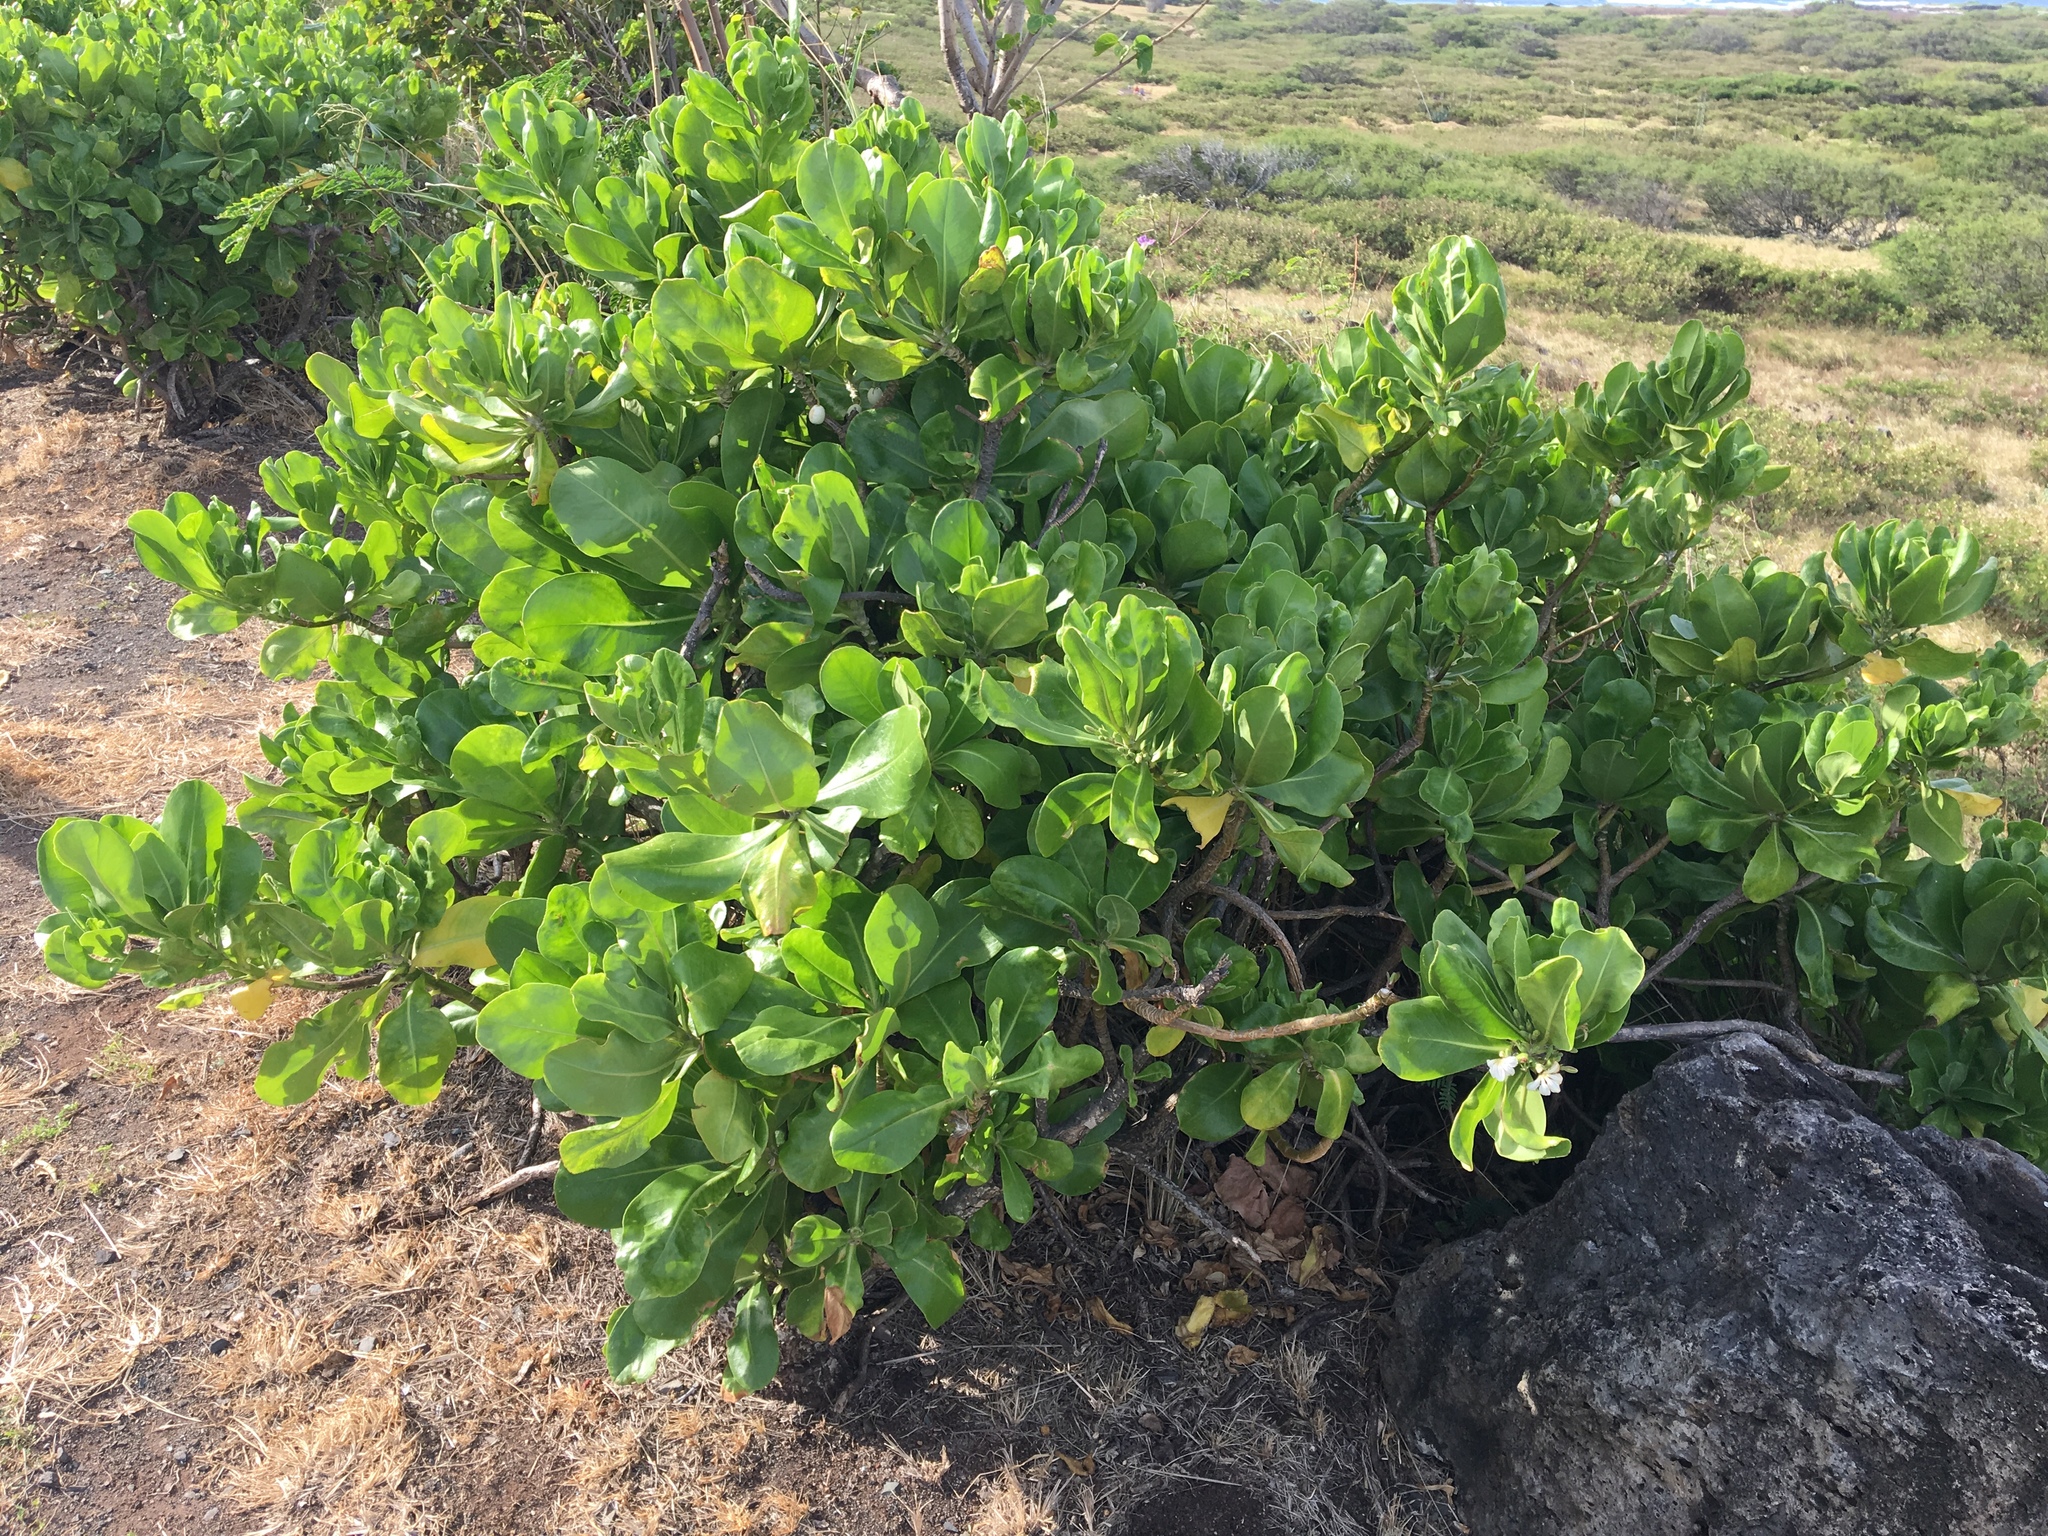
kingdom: Plantae
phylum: Tracheophyta
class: Magnoliopsida
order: Asterales
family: Goodeniaceae
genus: Scaevola
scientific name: Scaevola taccada
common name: Sea lettucetree
